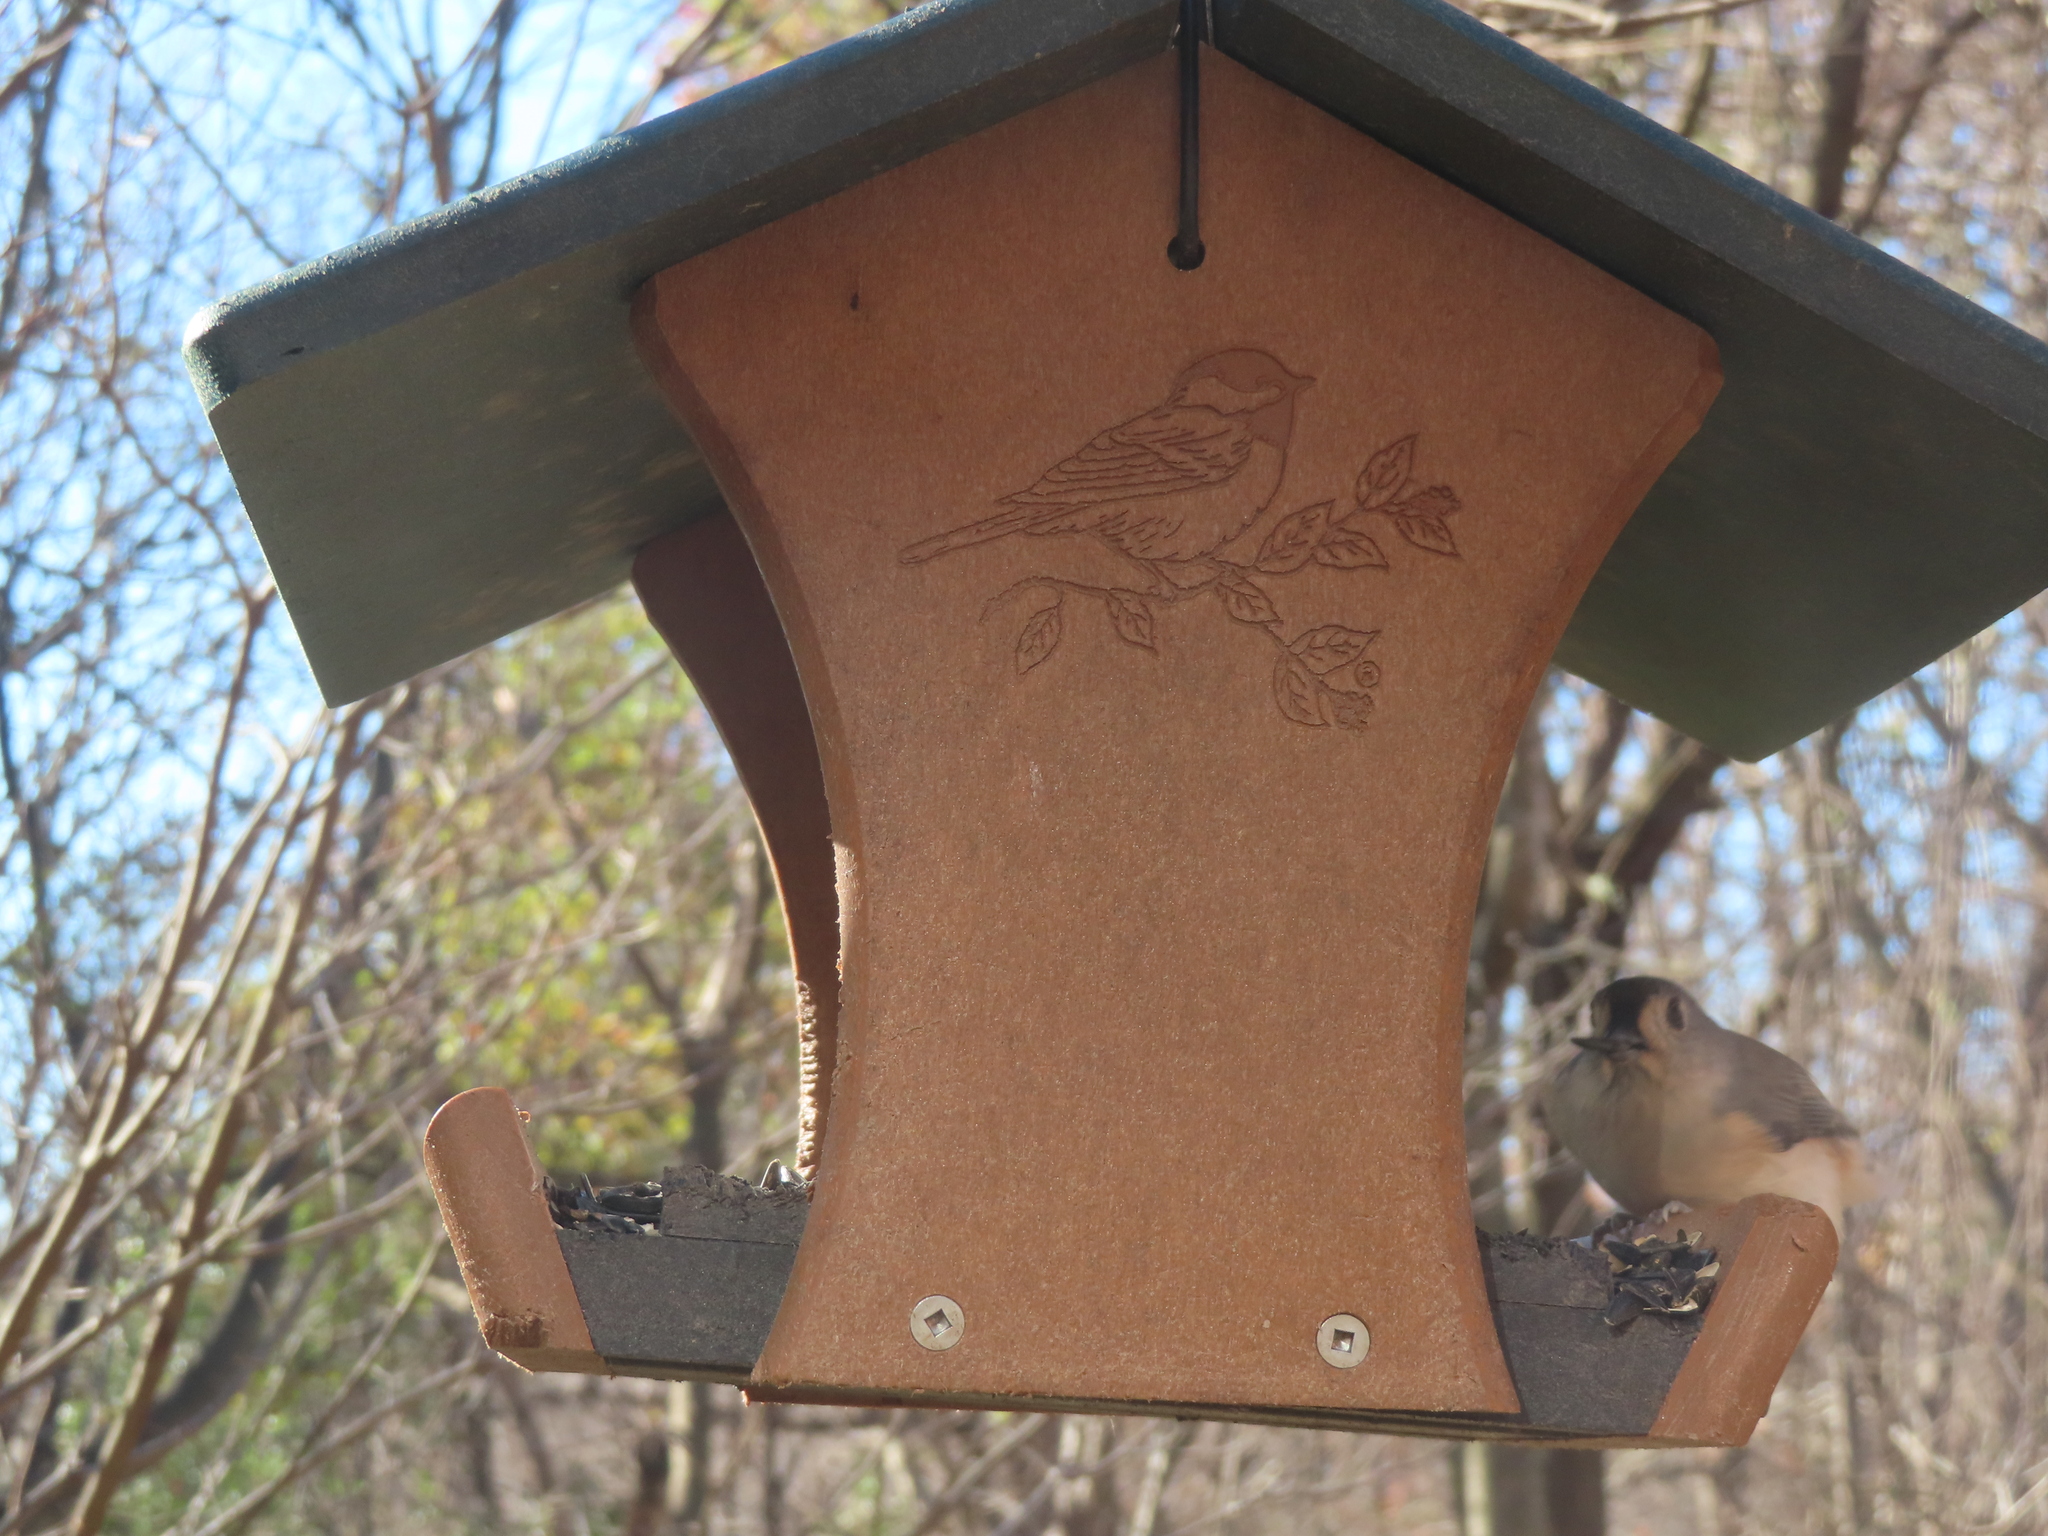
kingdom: Animalia
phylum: Chordata
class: Aves
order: Passeriformes
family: Paridae
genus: Baeolophus
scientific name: Baeolophus bicolor
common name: Tufted titmouse
